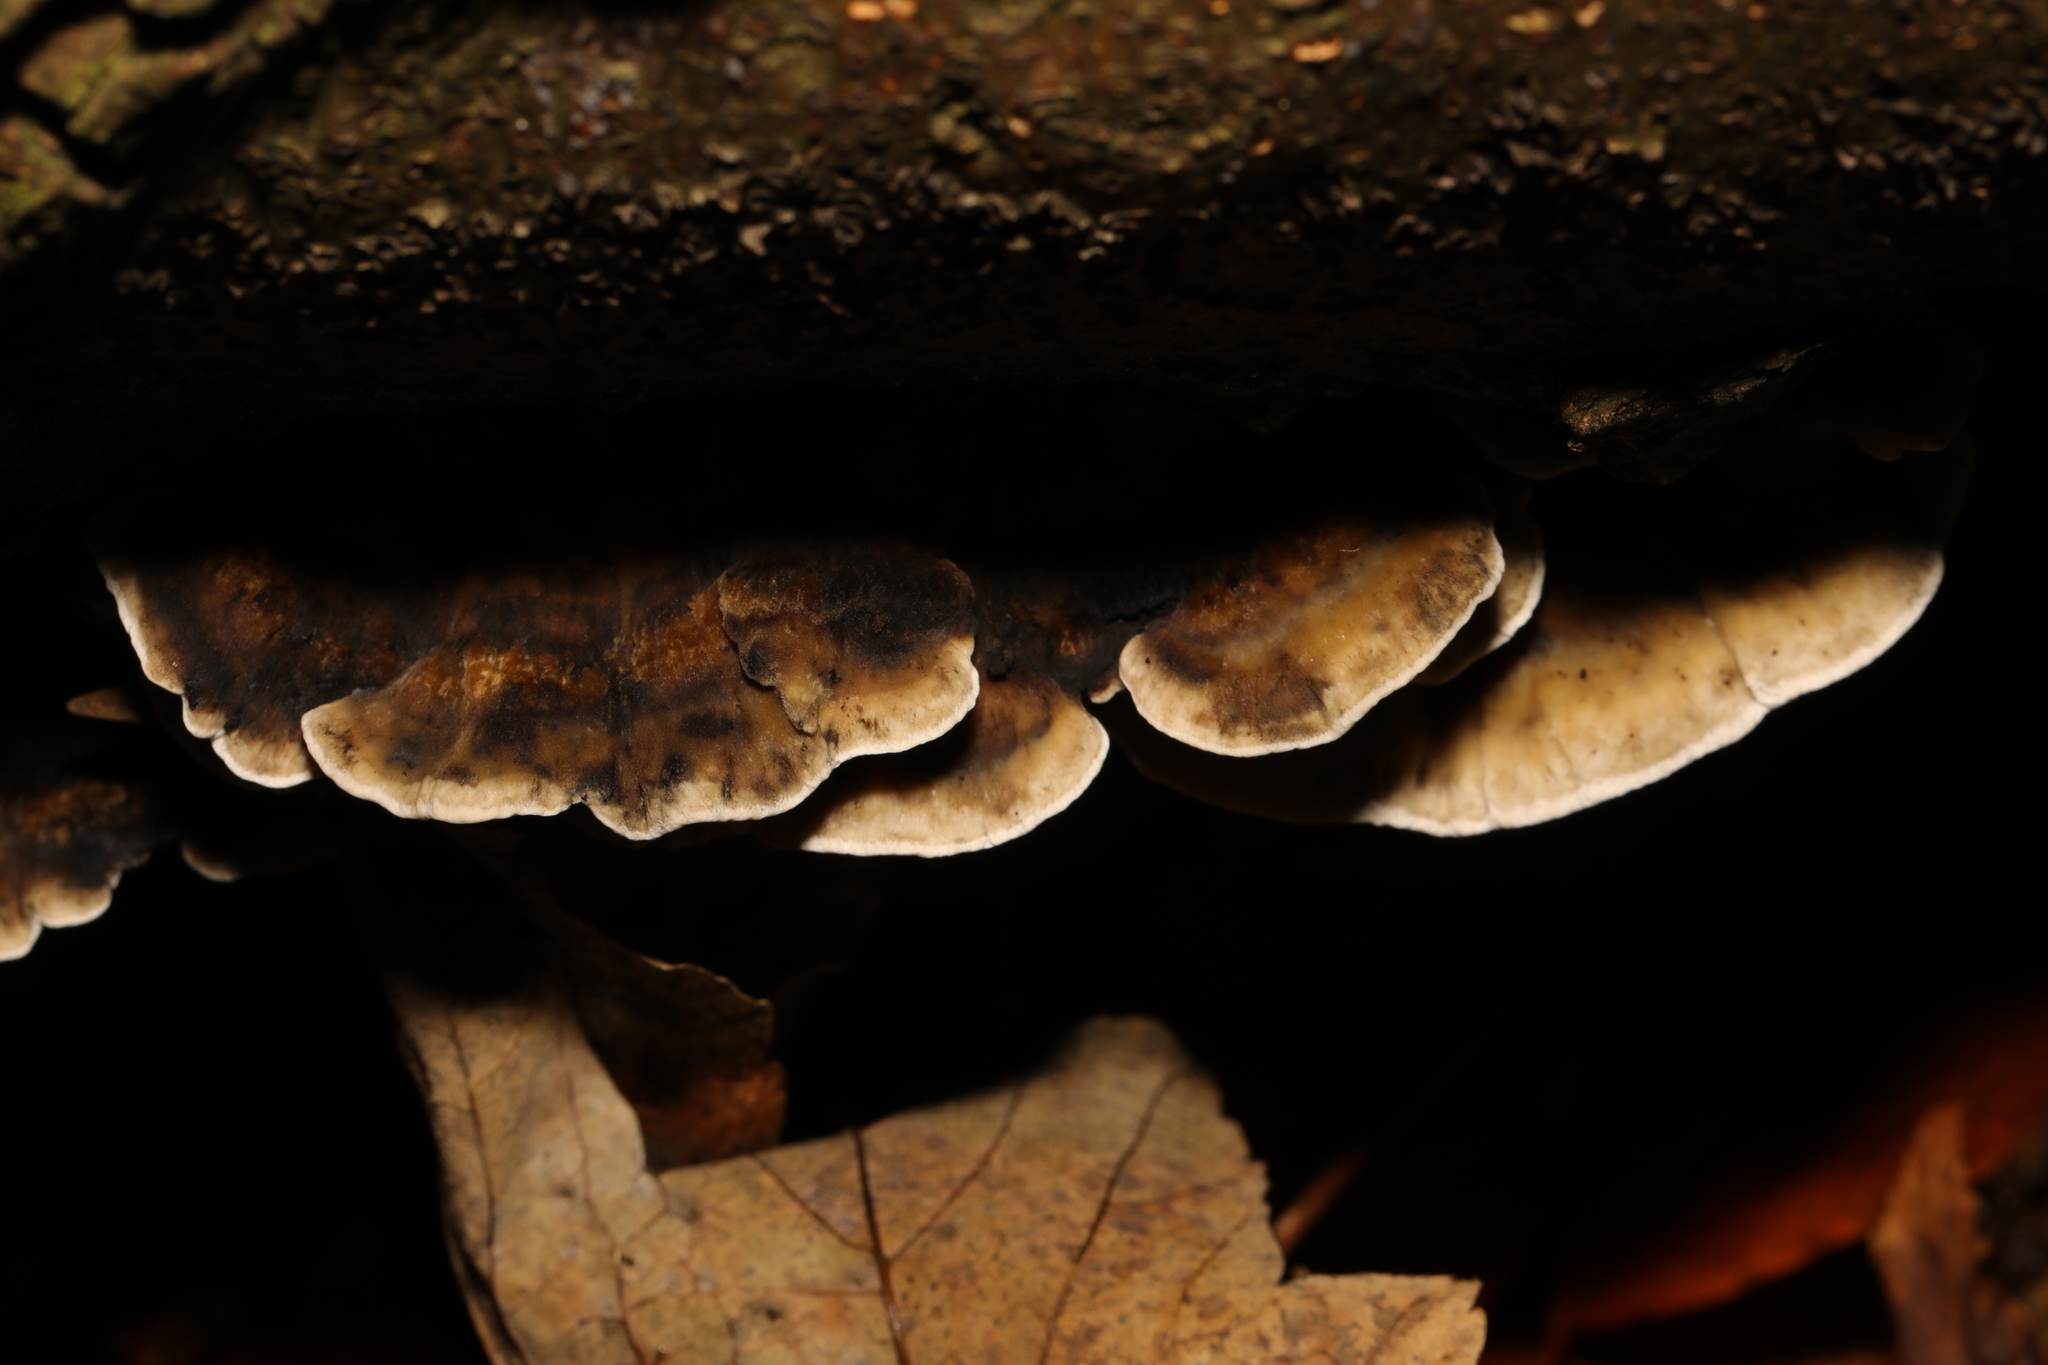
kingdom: Fungi
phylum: Basidiomycota
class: Agaricomycetes
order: Polyporales
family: Phanerochaetaceae
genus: Bjerkandera
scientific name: Bjerkandera adusta
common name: Smoky bracket
